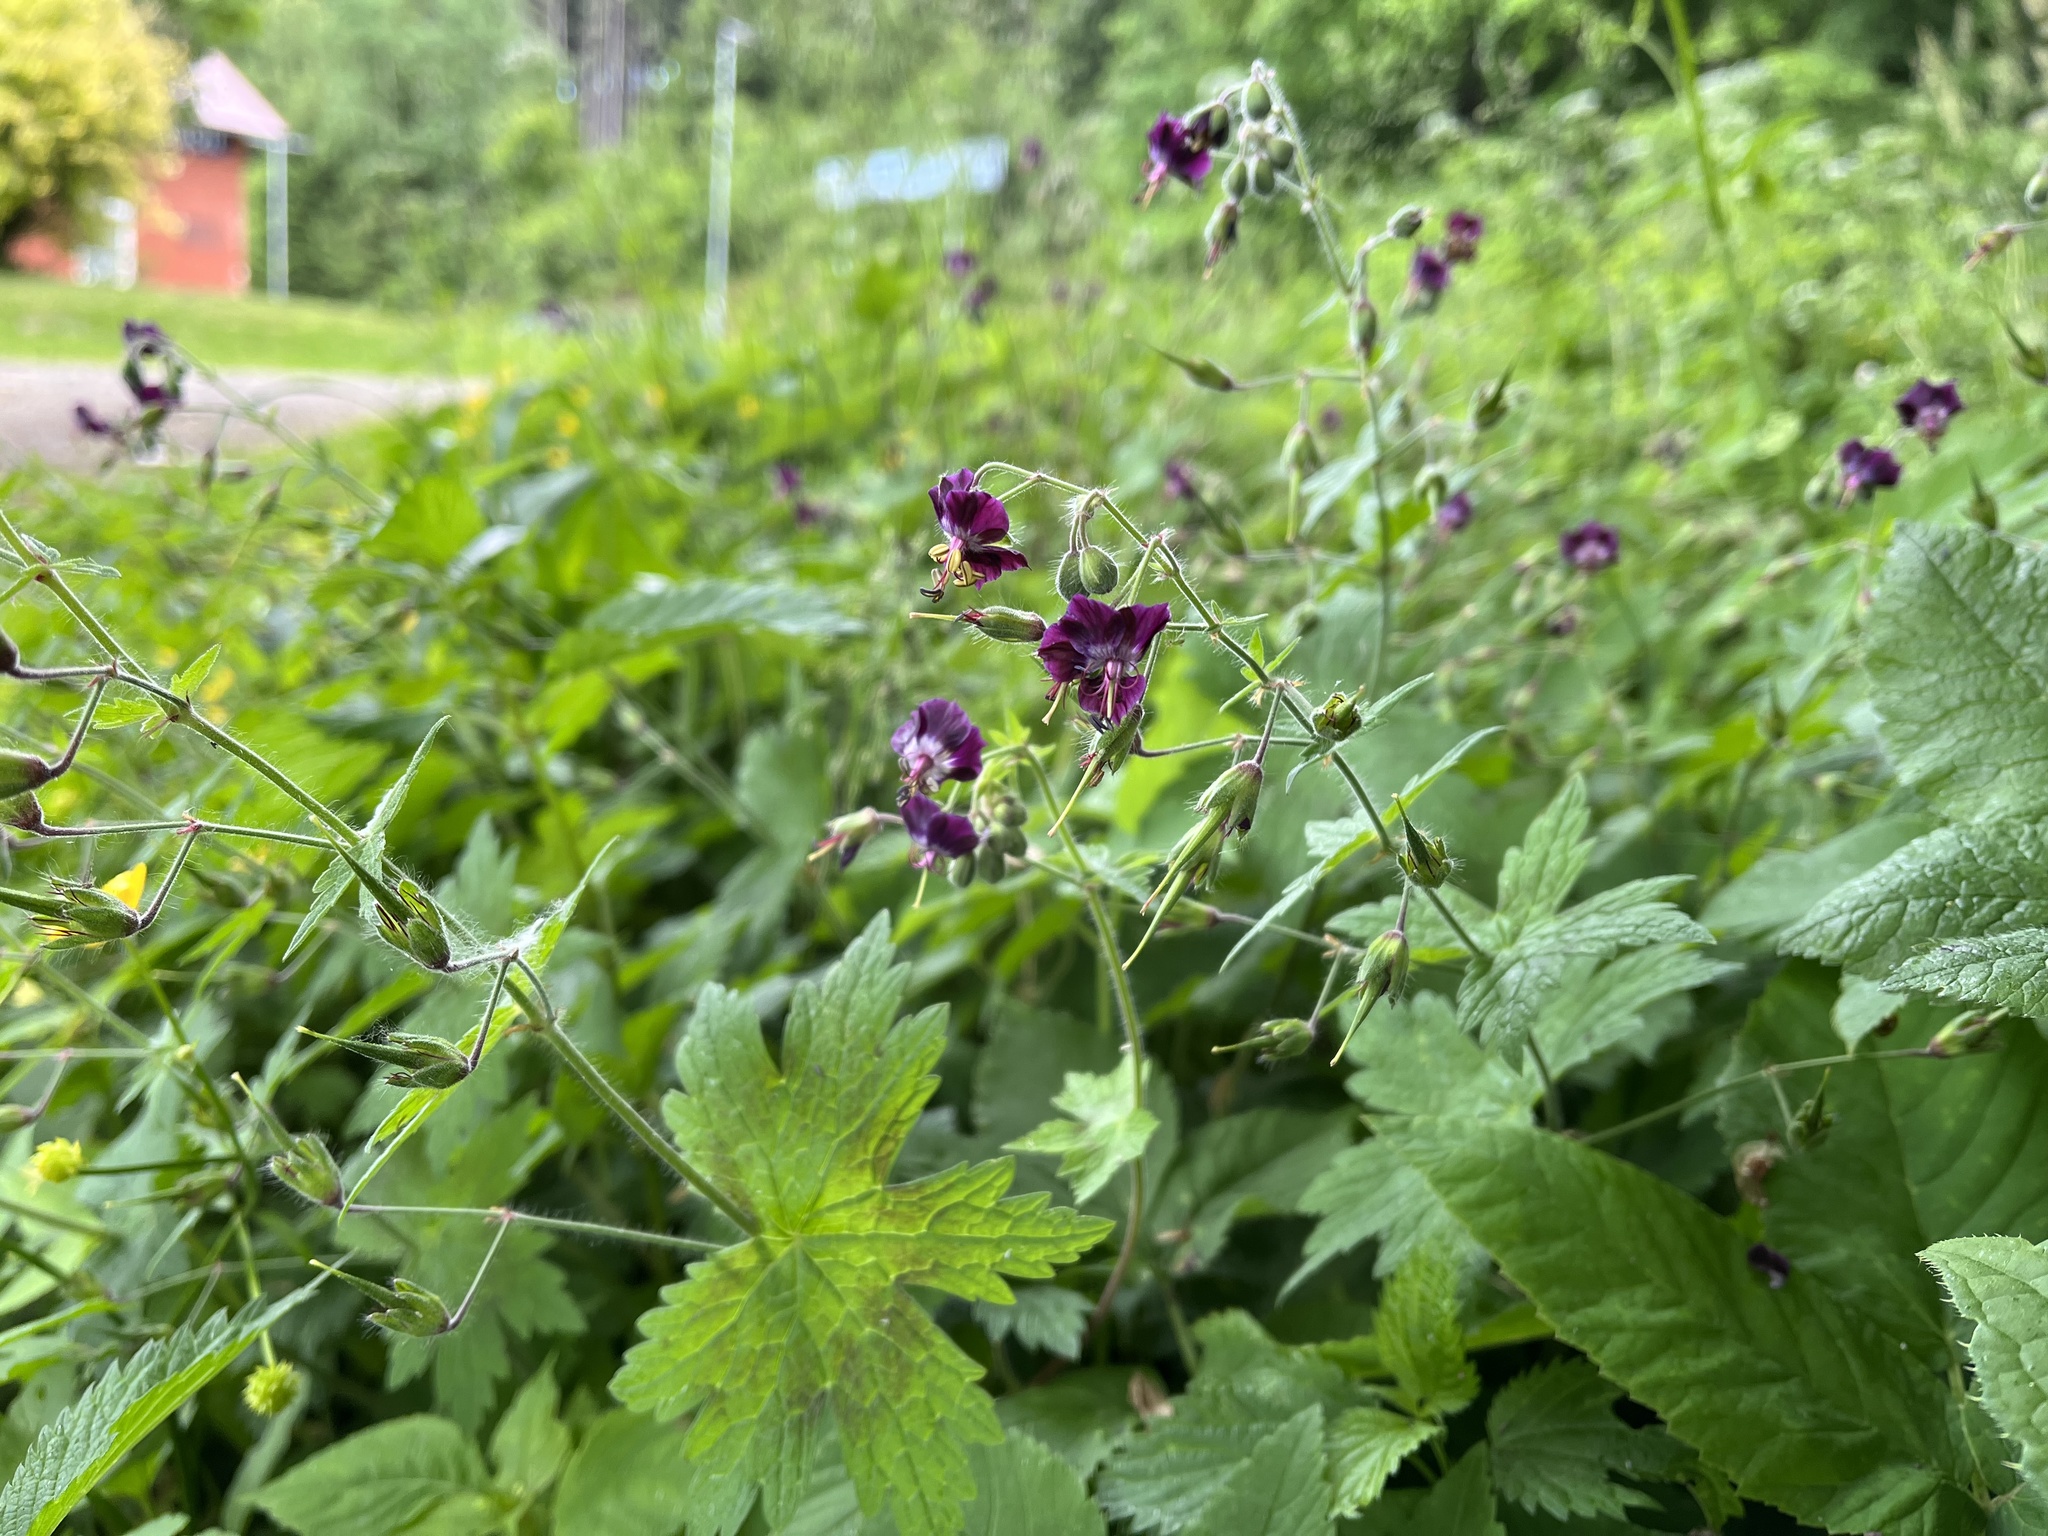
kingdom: Plantae
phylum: Tracheophyta
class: Magnoliopsida
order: Geraniales
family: Geraniaceae
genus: Geranium
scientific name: Geranium phaeum
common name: Dusky crane's-bill
